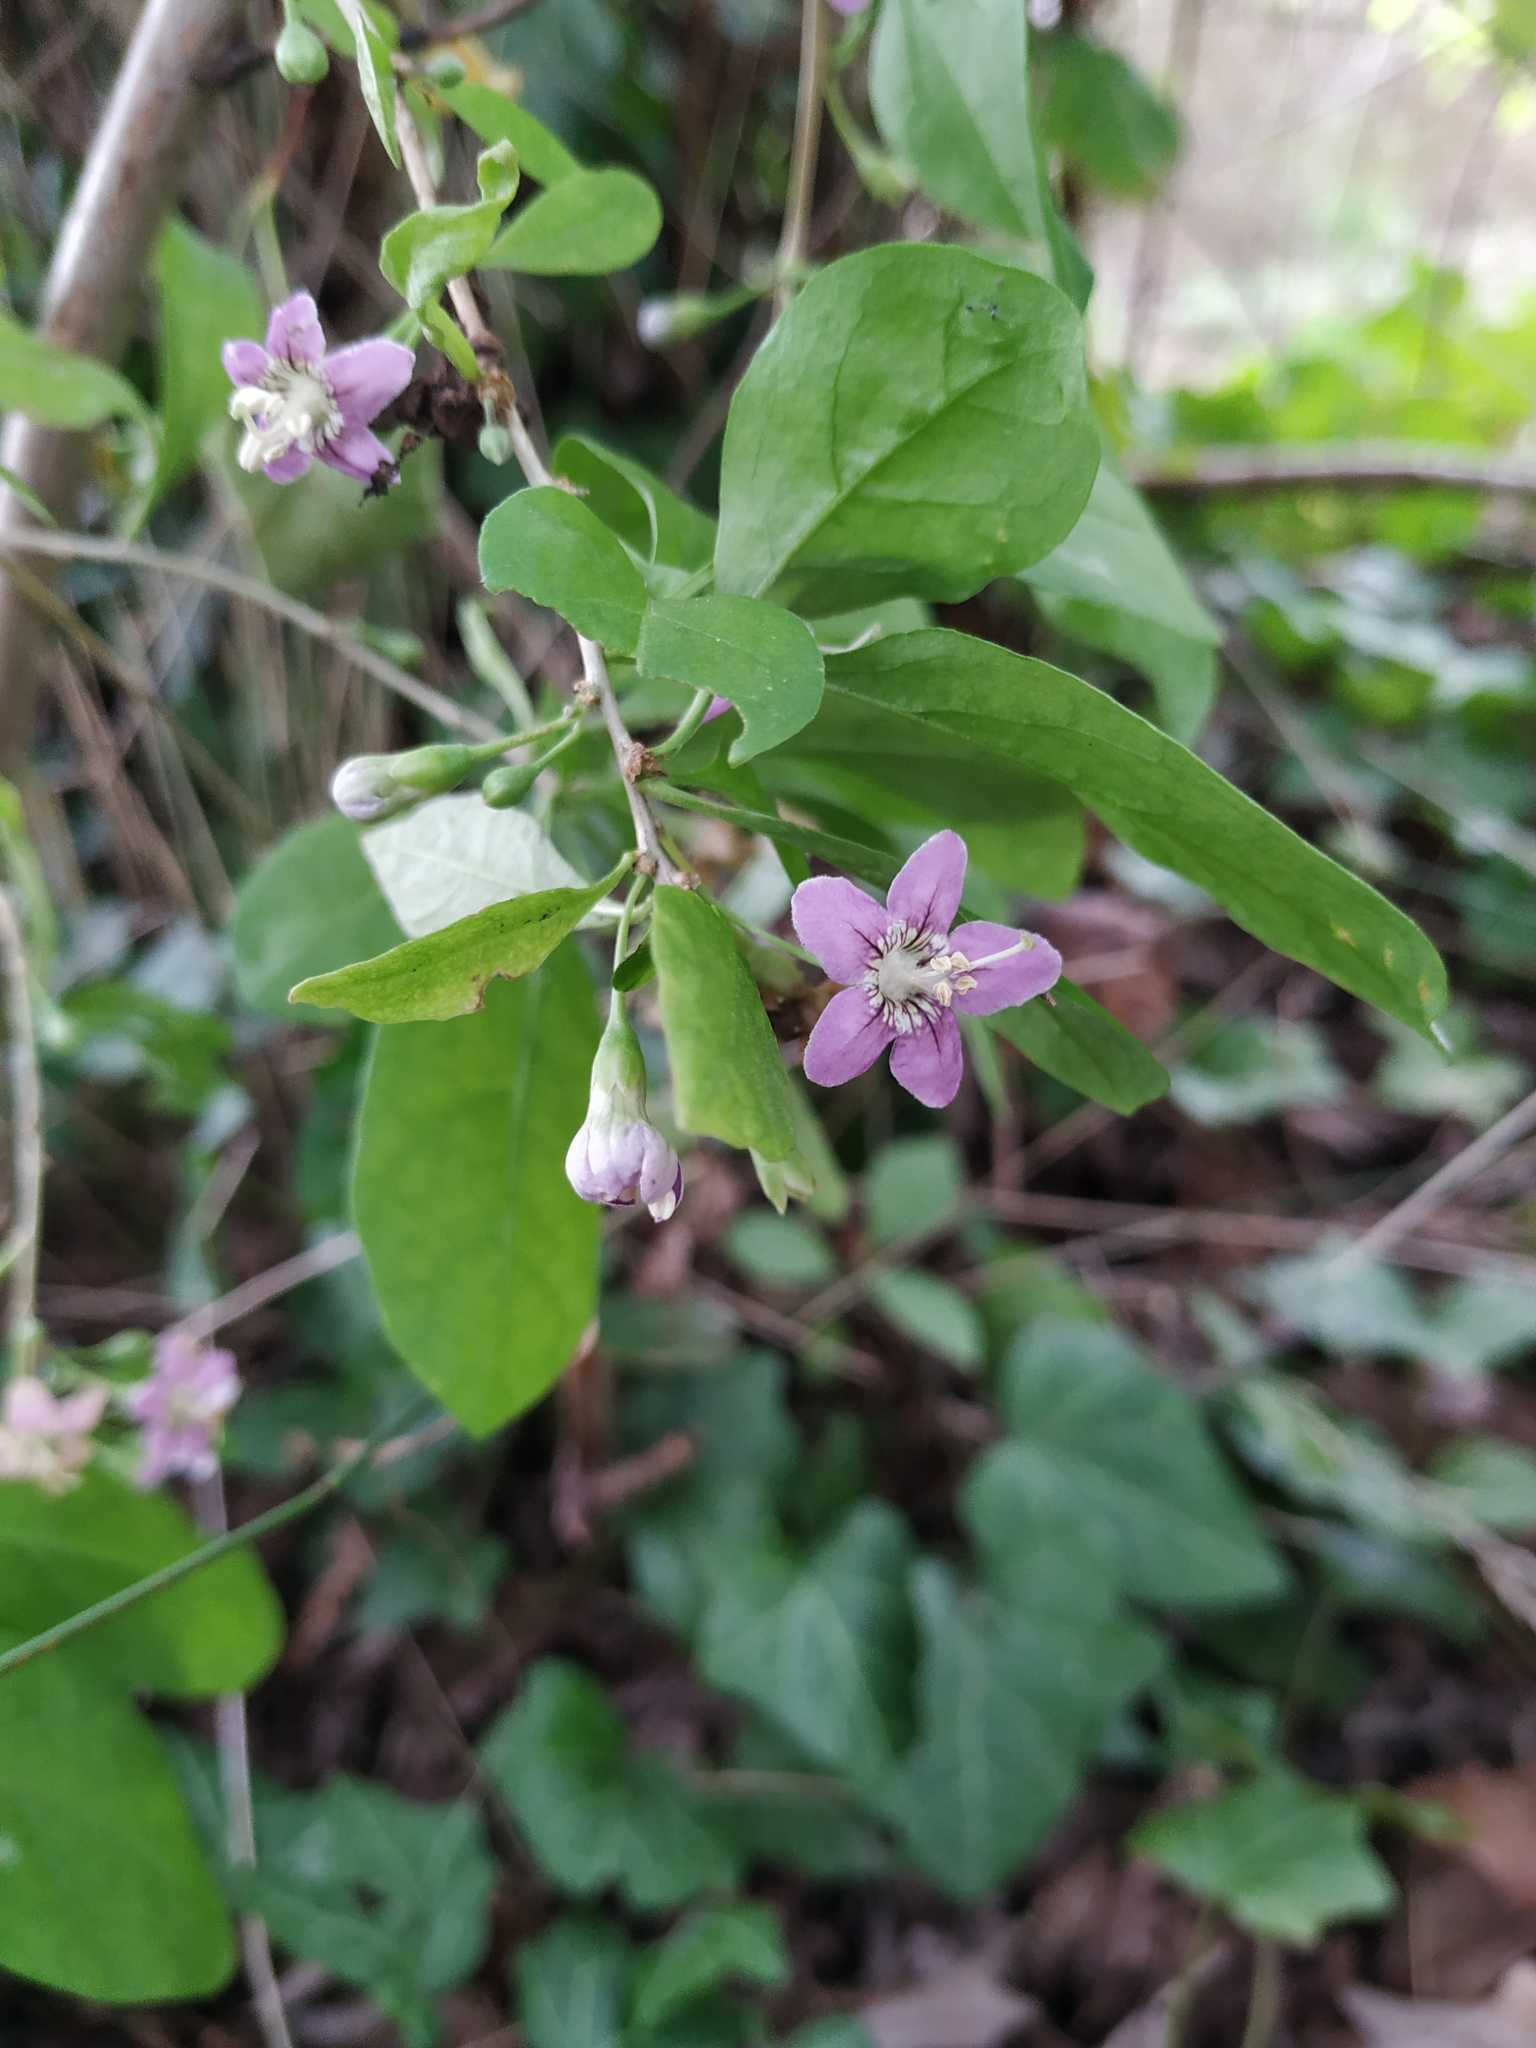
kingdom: Plantae
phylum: Tracheophyta
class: Magnoliopsida
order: Solanales
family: Solanaceae
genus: Lycium
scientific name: Lycium barbarum
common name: Duke of argyll's teaplant
